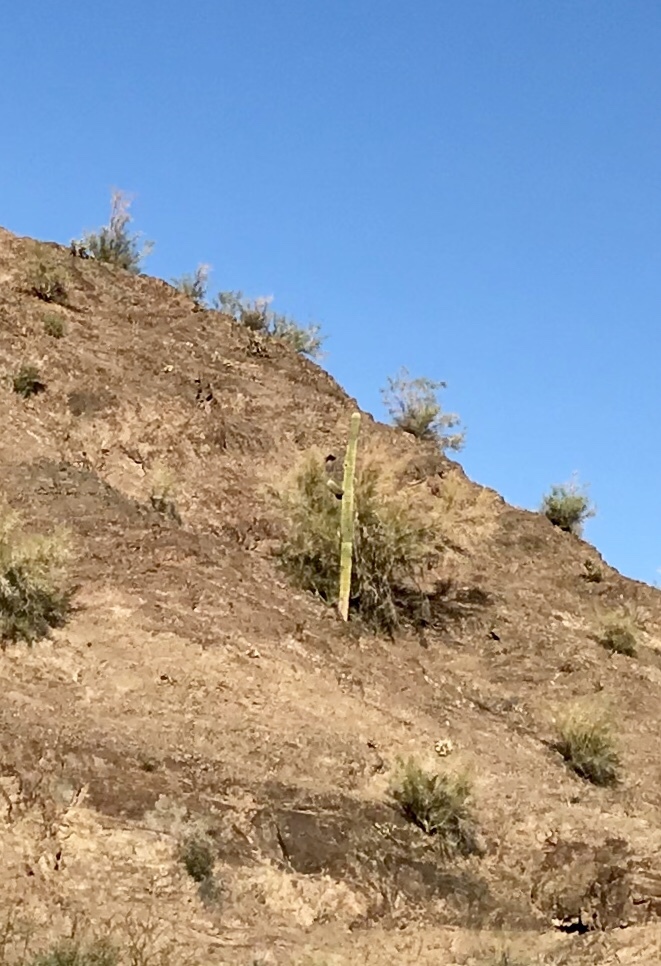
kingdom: Plantae
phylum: Tracheophyta
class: Magnoliopsida
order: Caryophyllales
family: Cactaceae
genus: Carnegiea
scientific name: Carnegiea gigantea
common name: Saguaro
